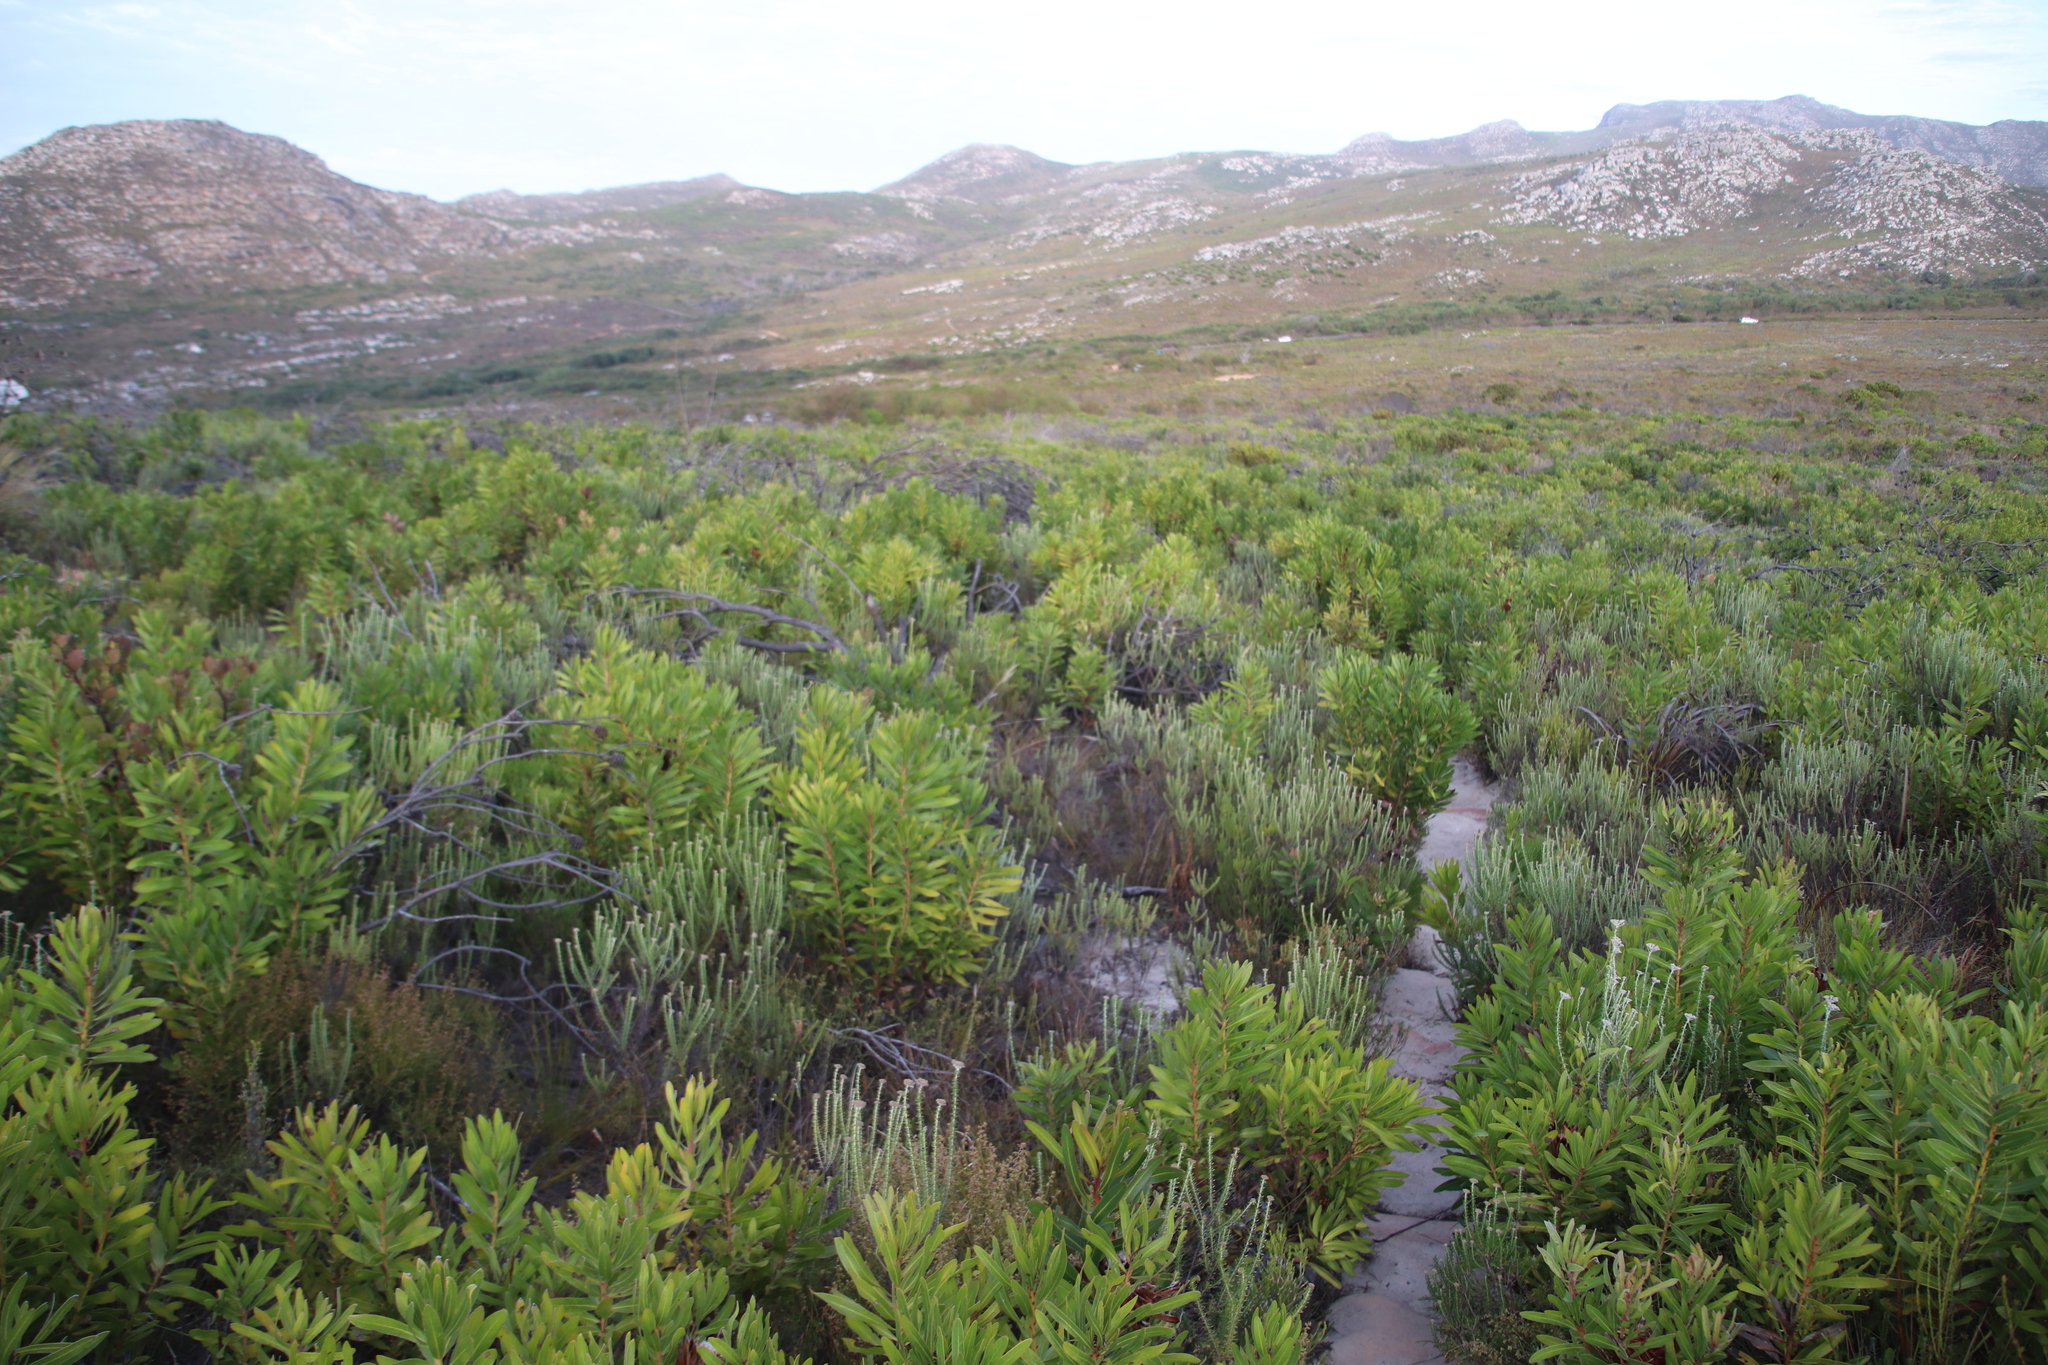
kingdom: Plantae
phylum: Tracheophyta
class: Magnoliopsida
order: Proteales
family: Proteaceae
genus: Protea
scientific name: Protea lepidocarpodendron
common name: Black-bearded protea
